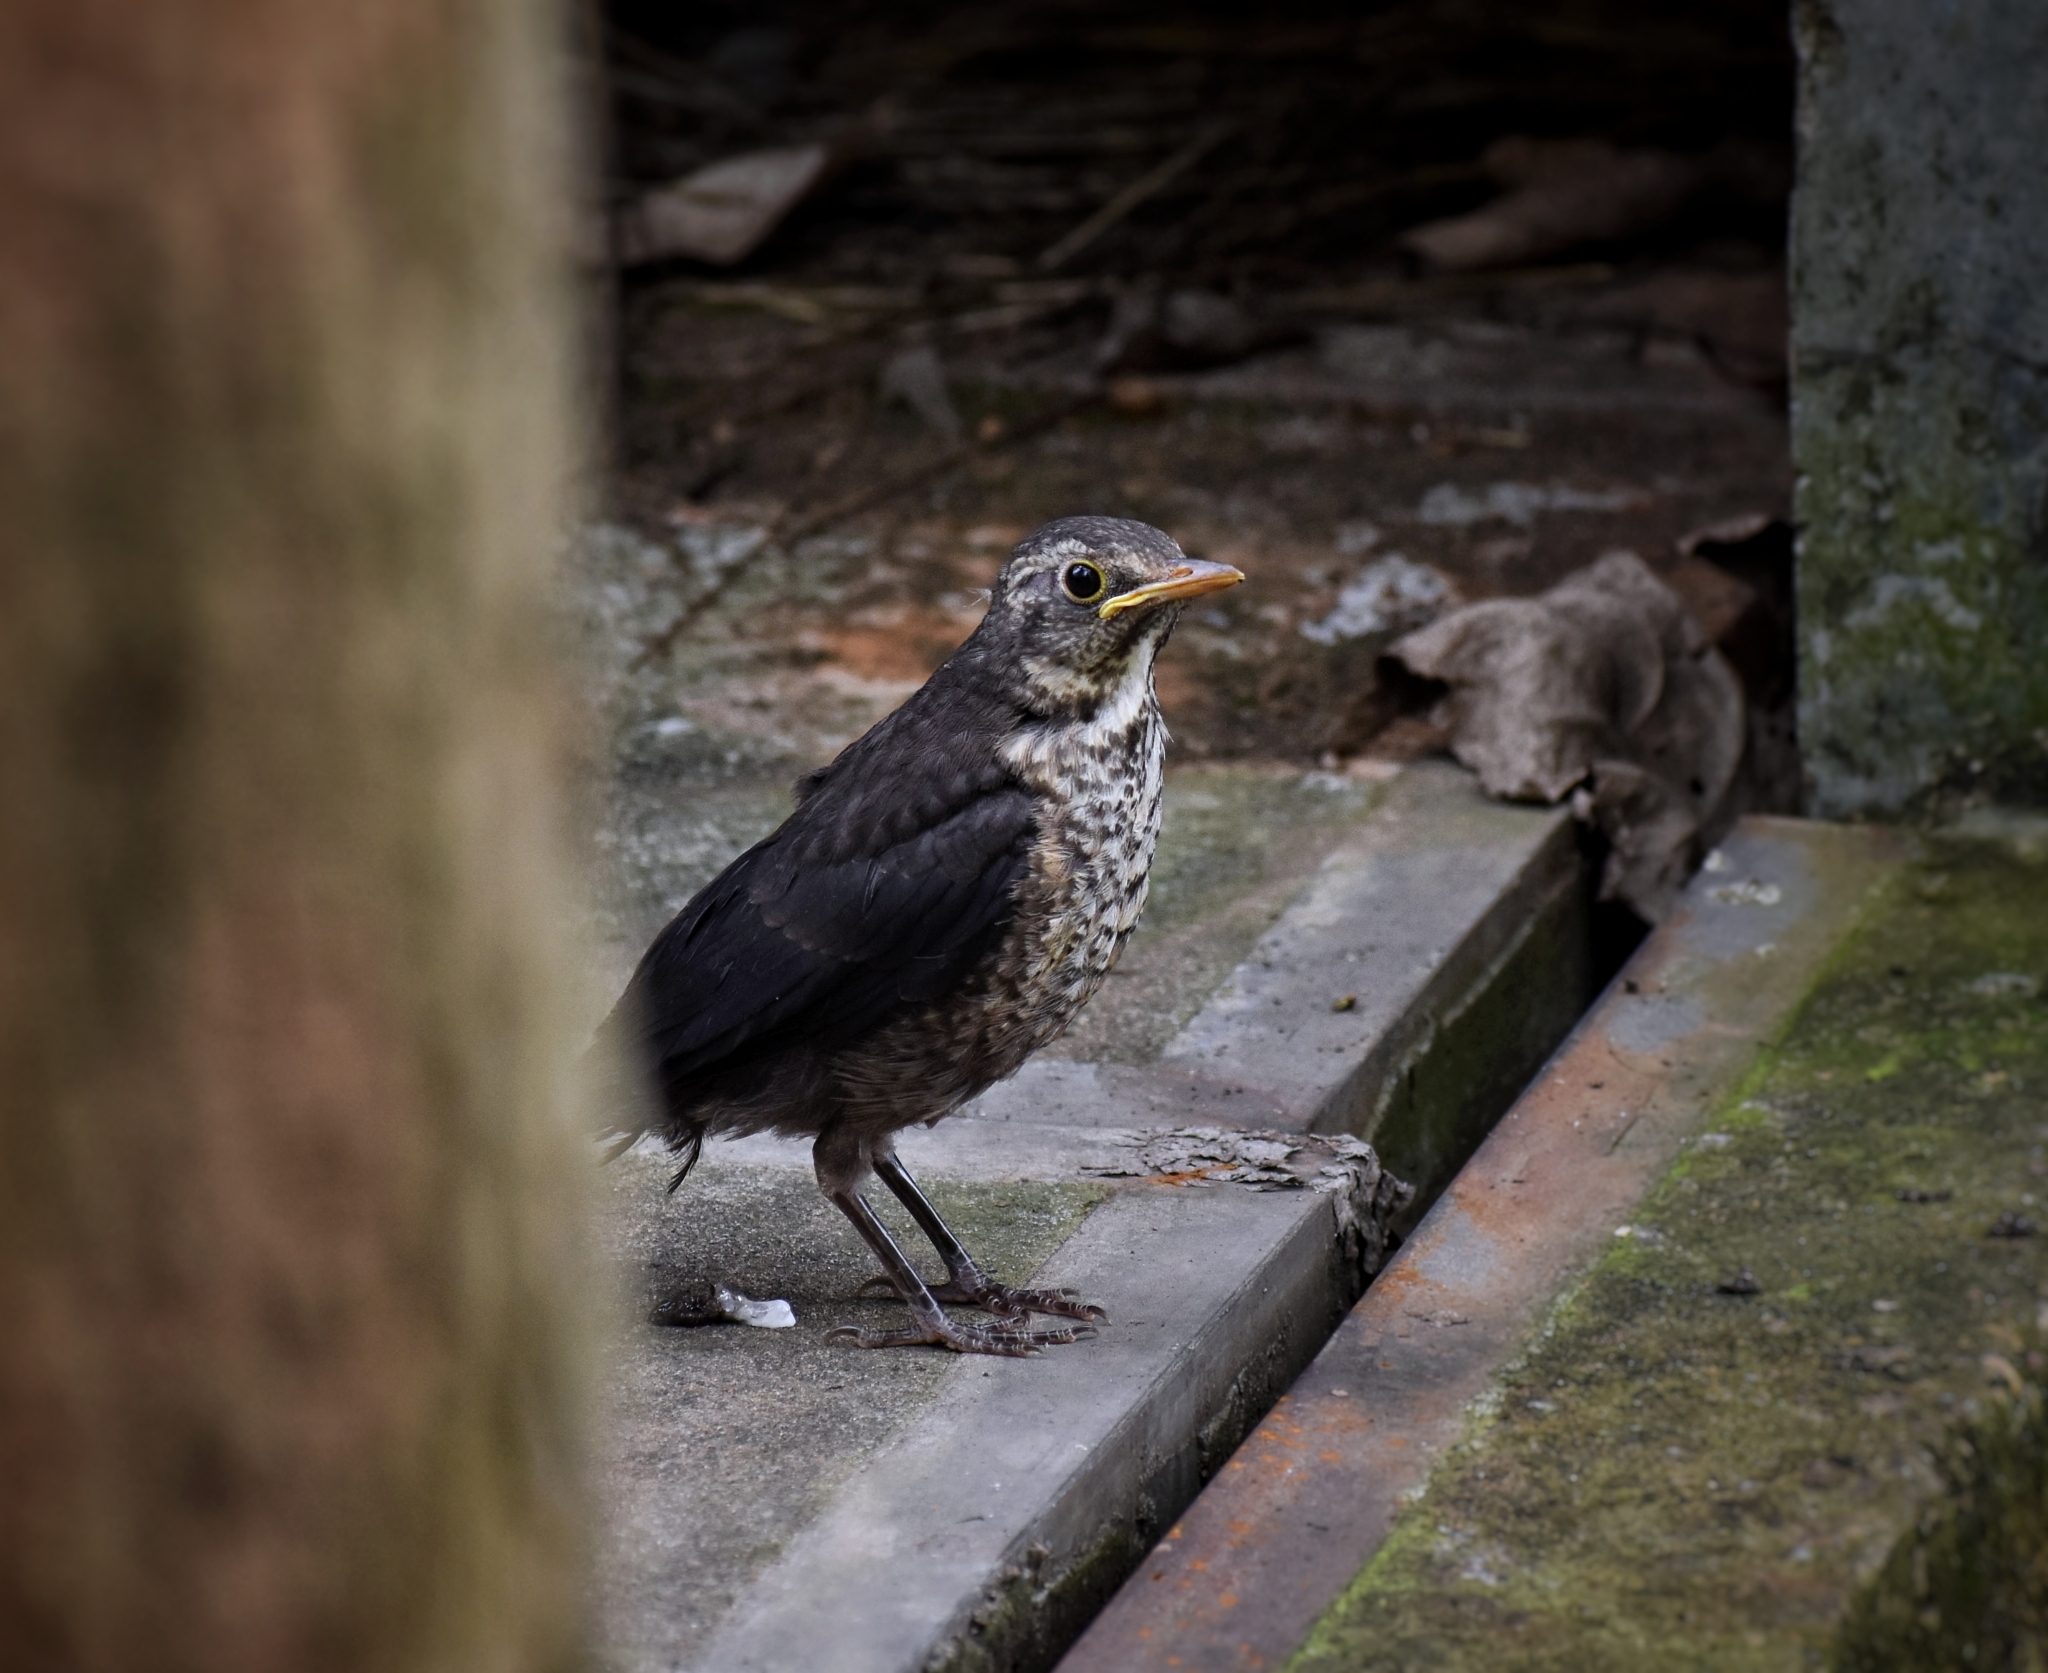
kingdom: Animalia
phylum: Chordata
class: Aves
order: Passeriformes
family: Turdidae
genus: Turdus
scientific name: Turdus mandarinus
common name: Chinese blackbird
